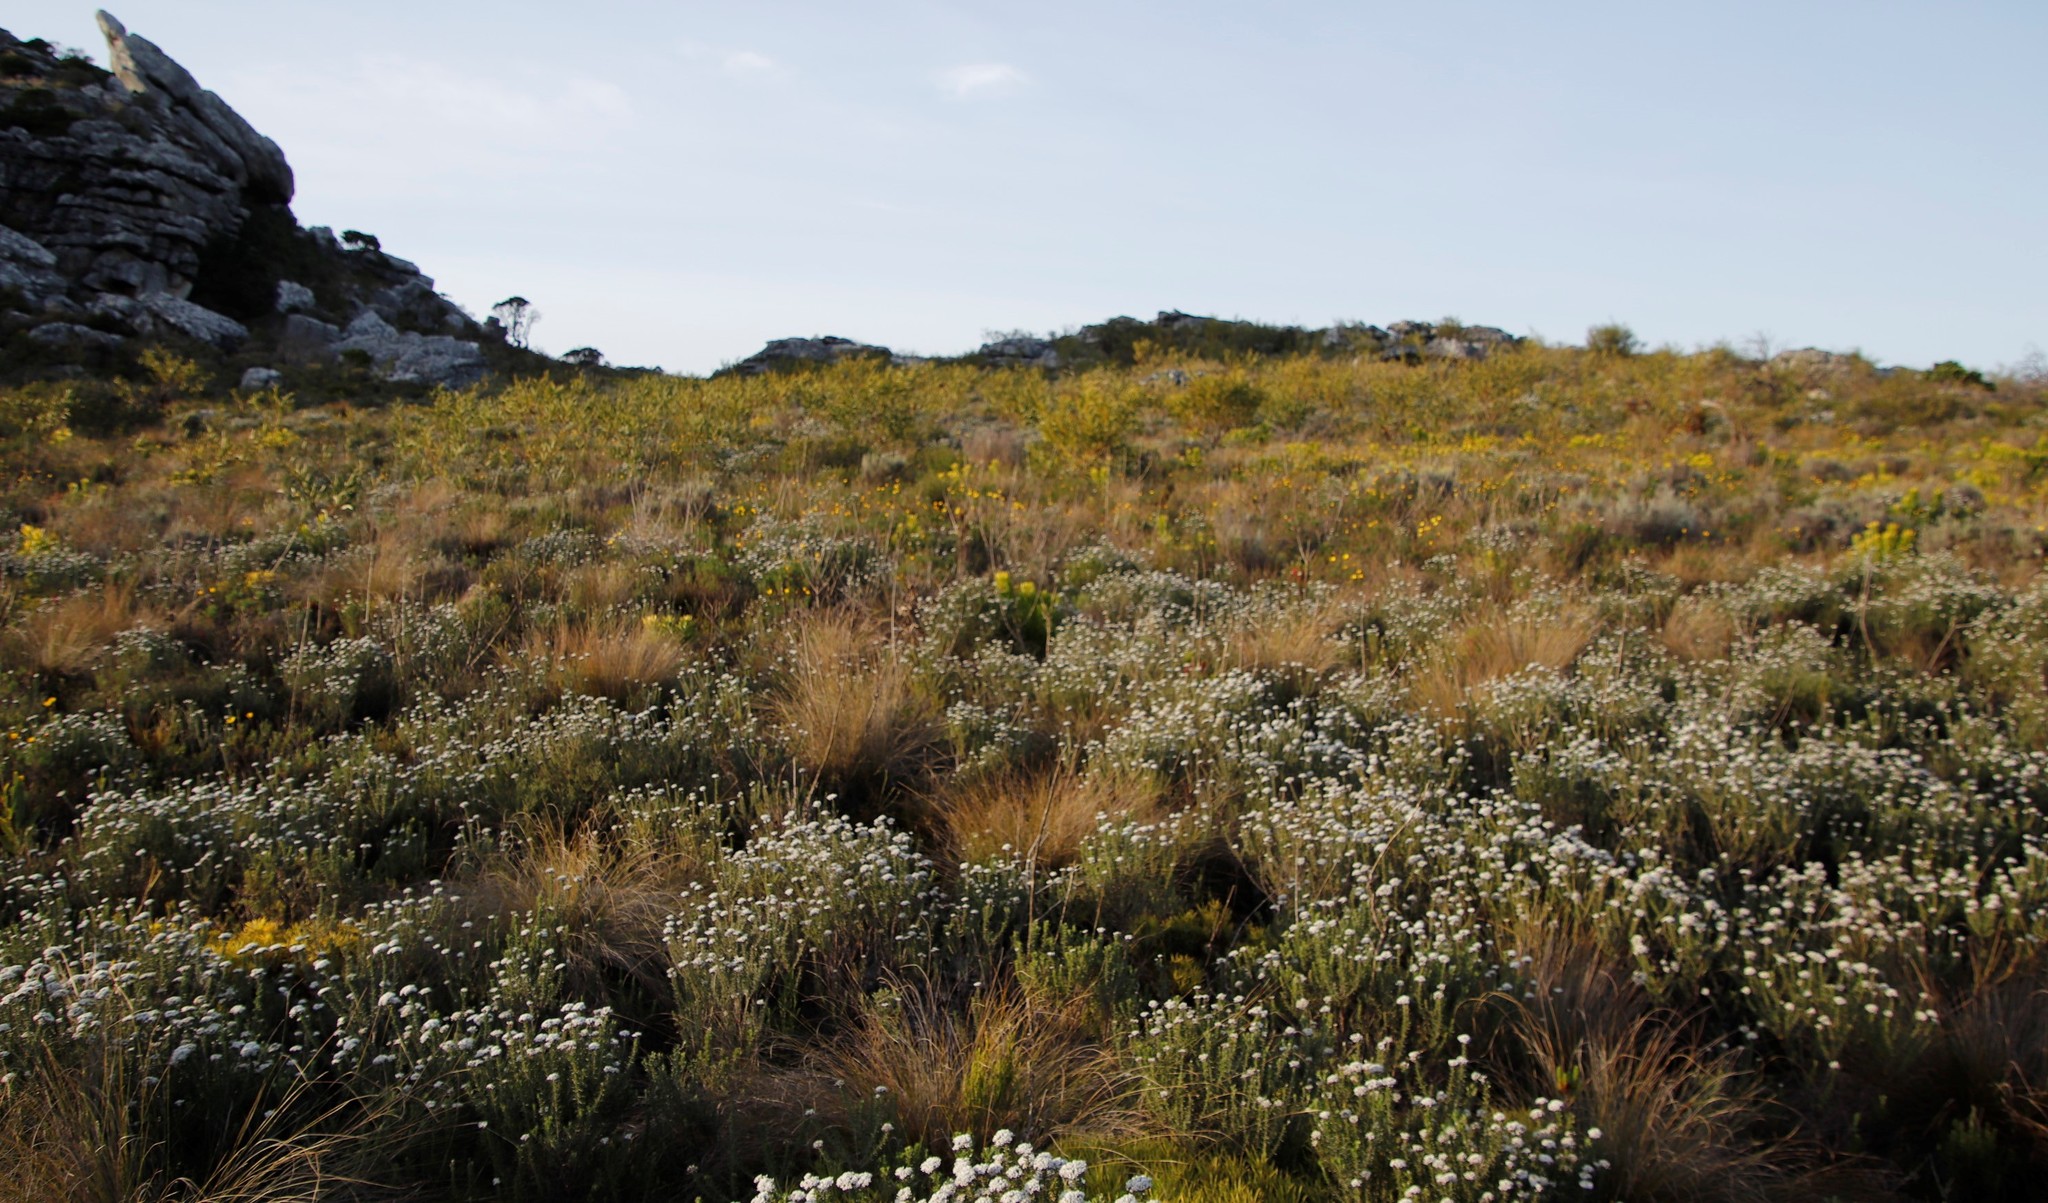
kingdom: Plantae
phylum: Tracheophyta
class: Magnoliopsida
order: Asterales
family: Asteraceae
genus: Metalasia
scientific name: Metalasia densa
